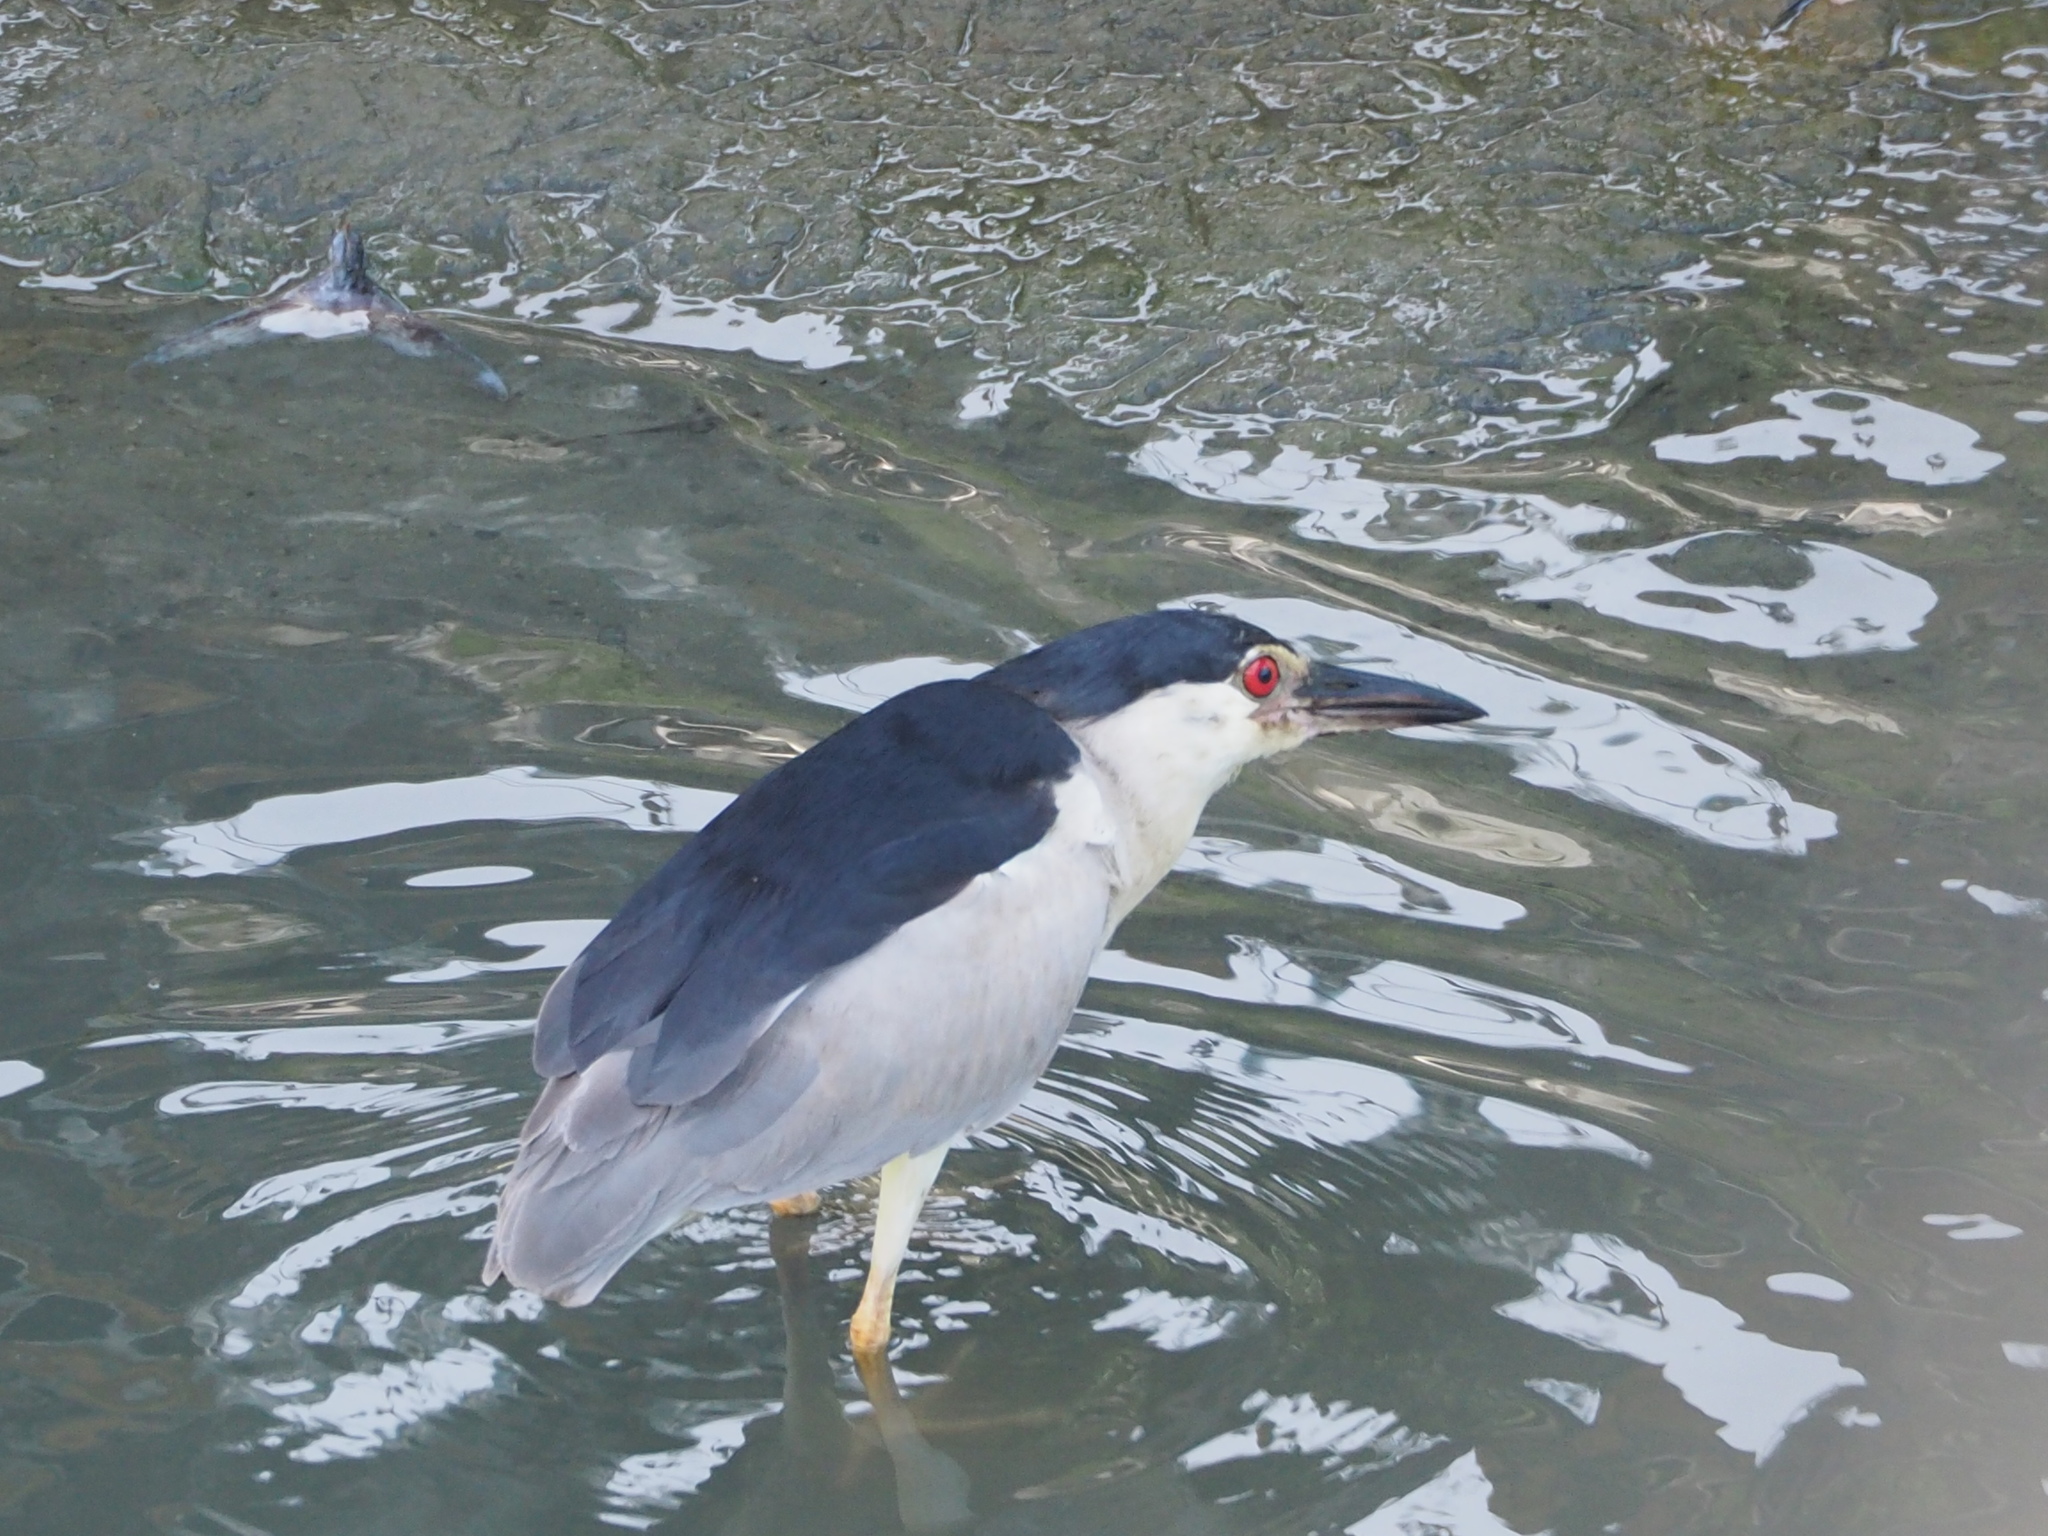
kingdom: Animalia
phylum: Chordata
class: Aves
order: Pelecaniformes
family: Ardeidae
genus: Nycticorax
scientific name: Nycticorax nycticorax
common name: Black-crowned night heron
